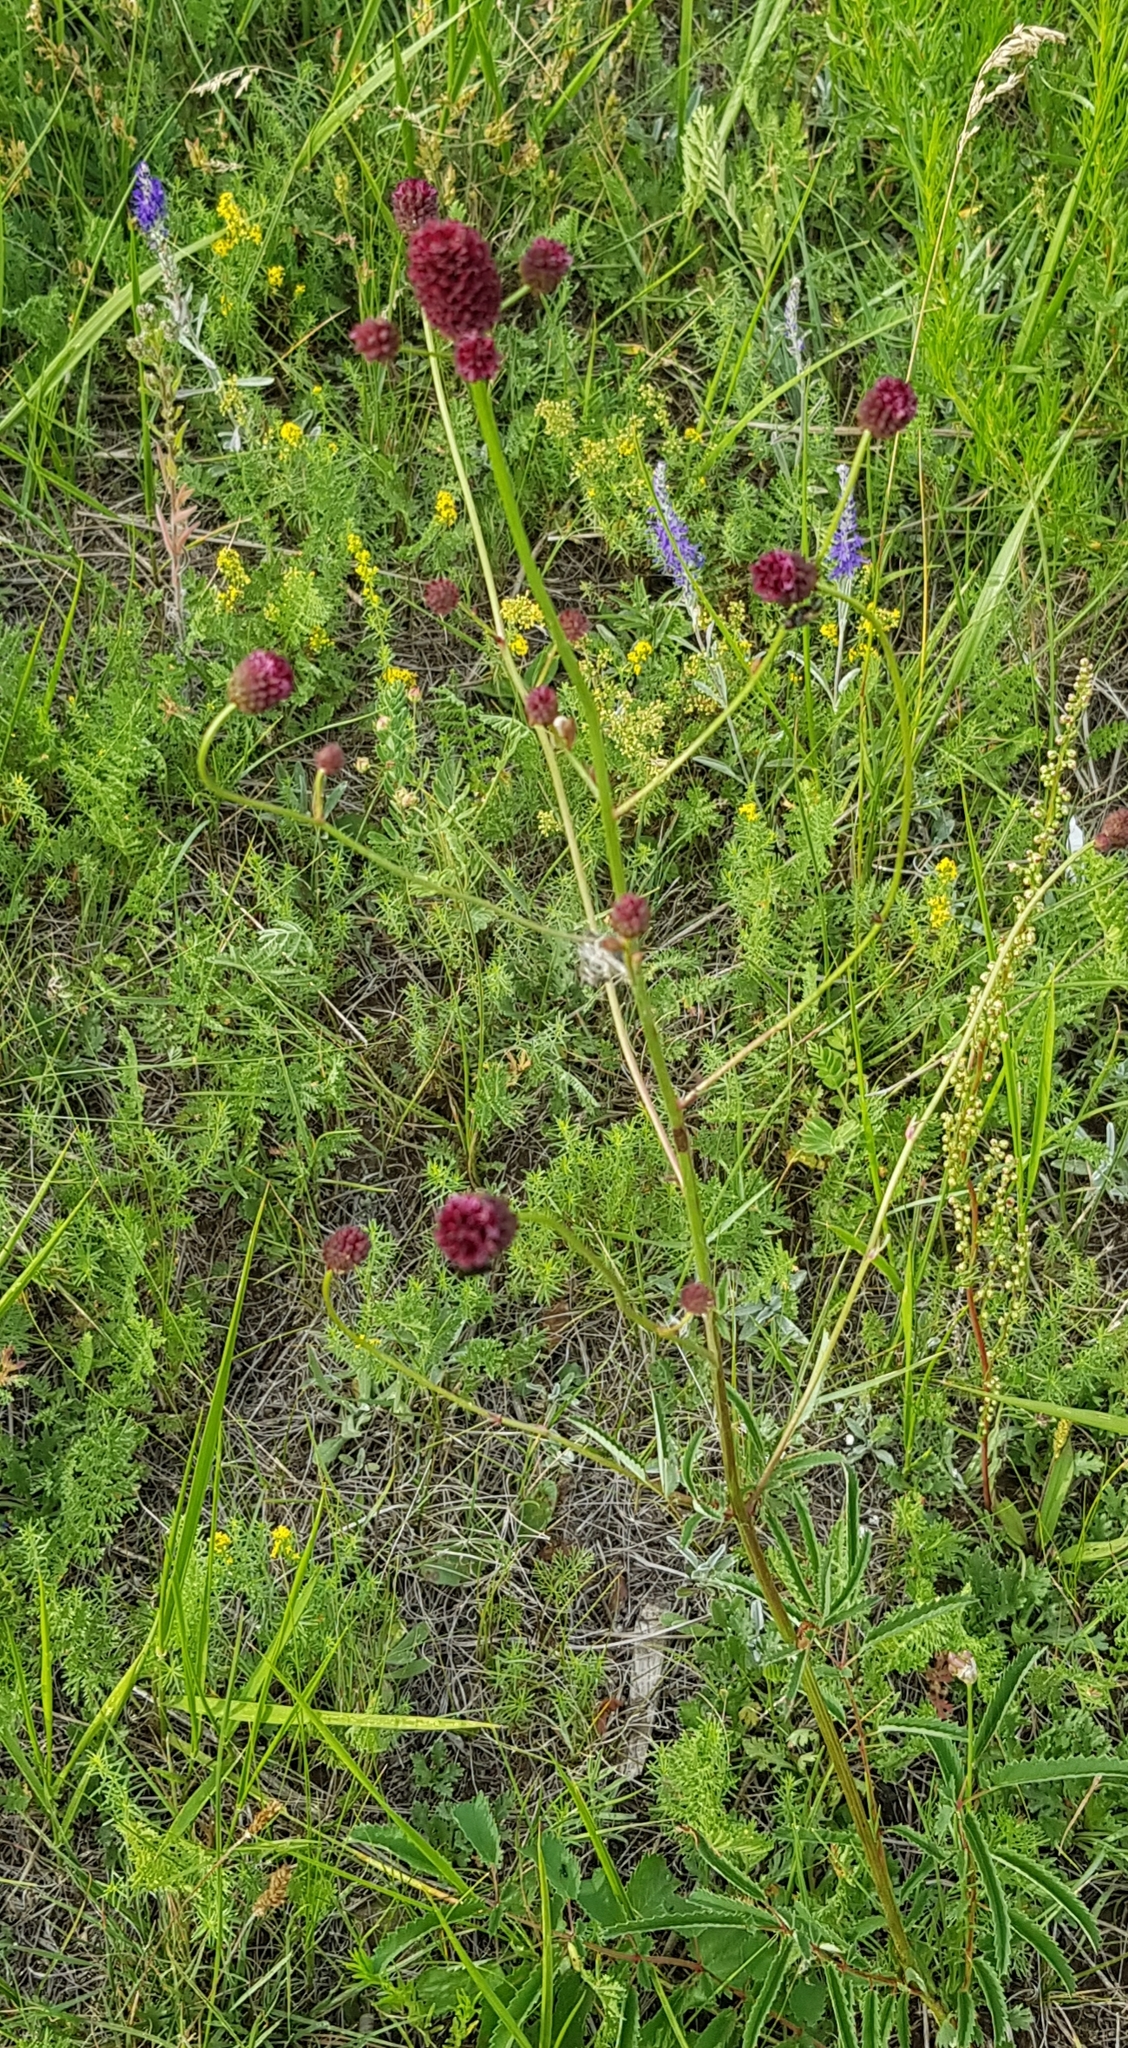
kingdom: Plantae
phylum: Tracheophyta
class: Magnoliopsida
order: Rosales
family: Rosaceae
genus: Sanguisorba
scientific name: Sanguisorba officinalis
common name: Great burnet
